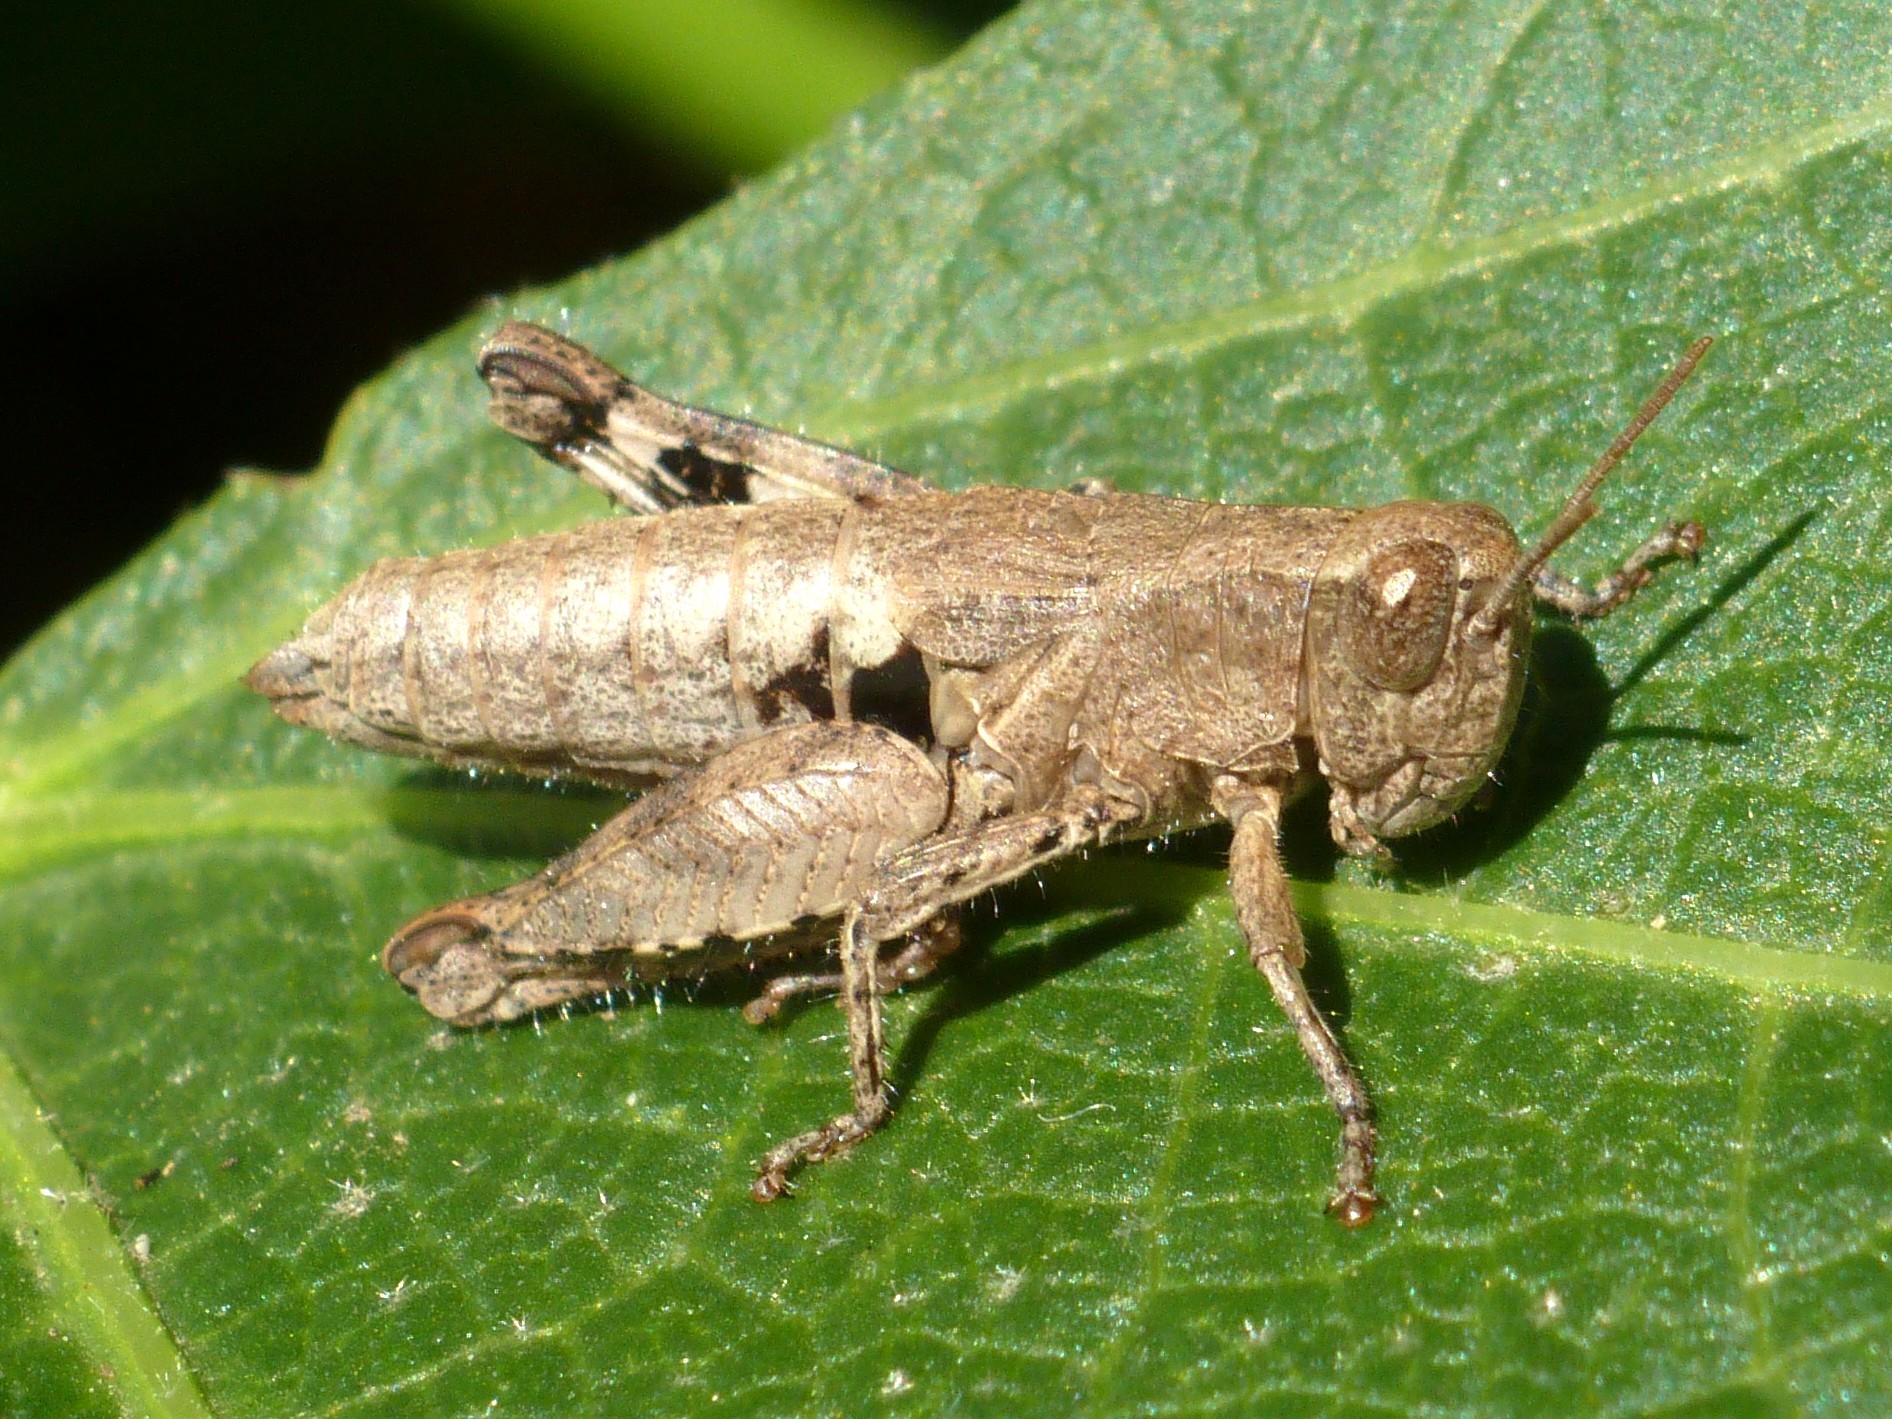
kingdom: Animalia
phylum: Arthropoda
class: Insecta
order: Orthoptera
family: Acrididae
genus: Pezotettix
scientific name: Pezotettix giornae
